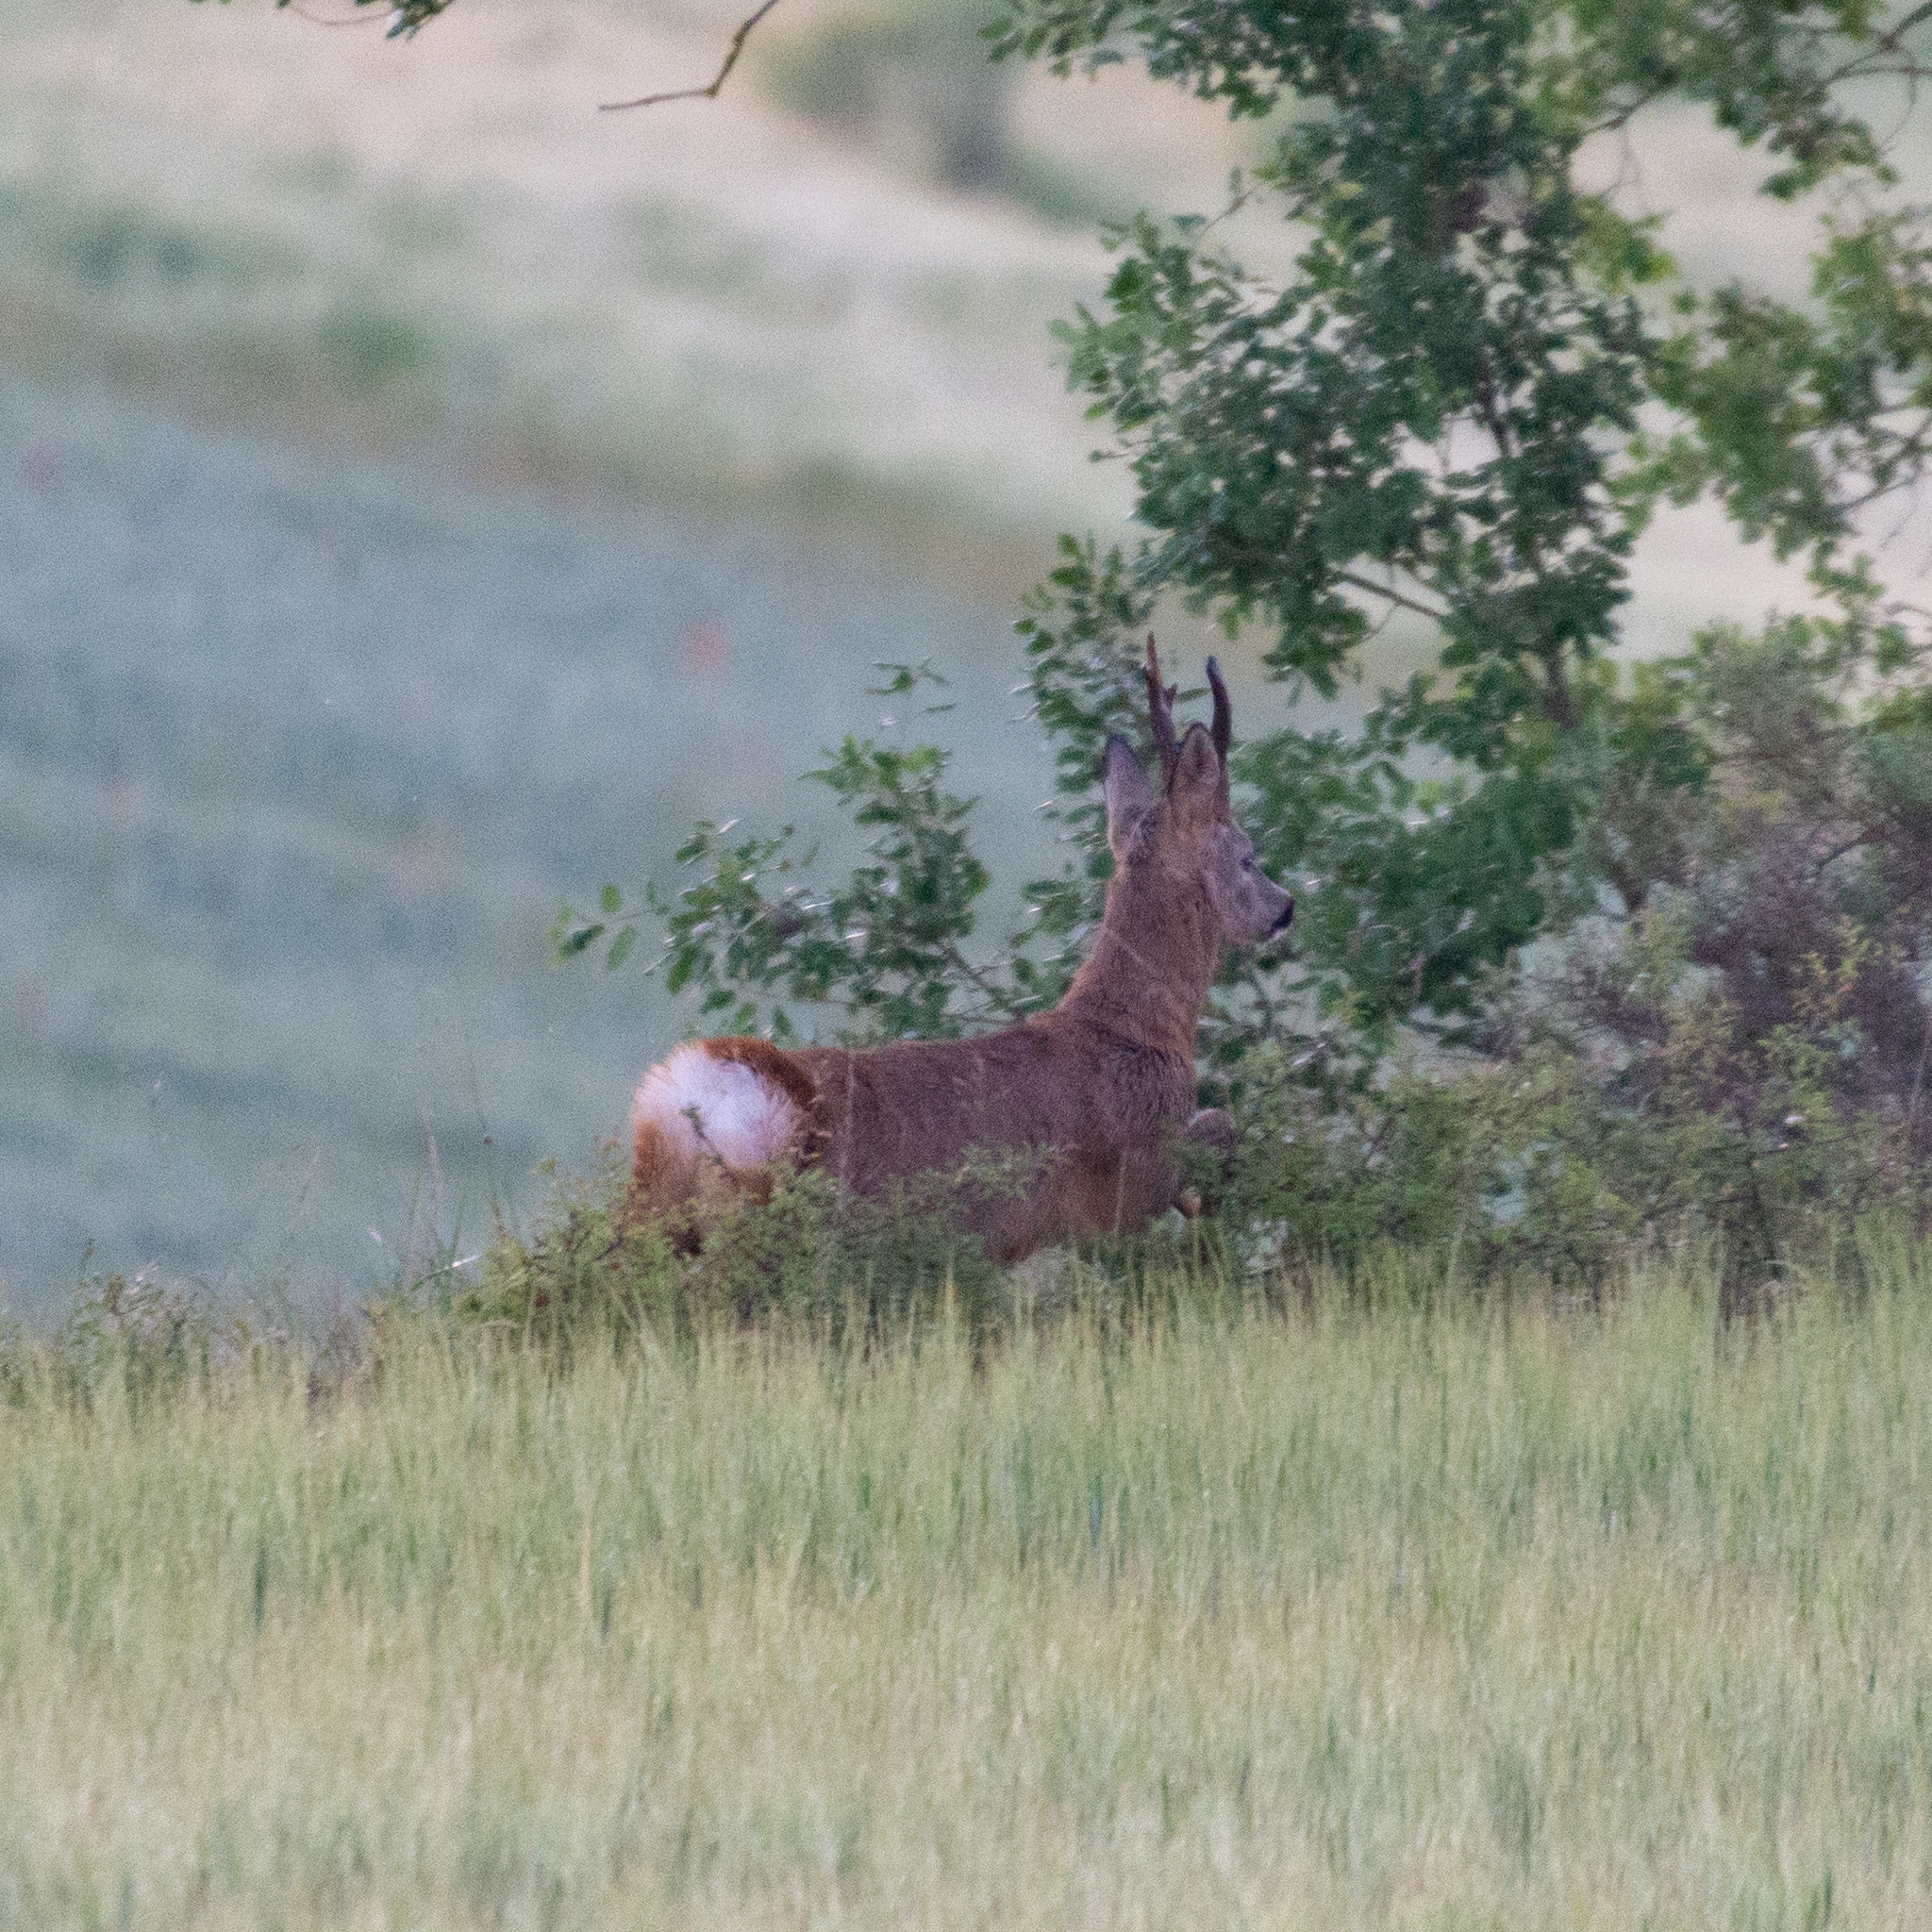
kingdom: Animalia
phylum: Chordata
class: Mammalia
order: Artiodactyla
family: Cervidae
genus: Capreolus
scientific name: Capreolus capreolus
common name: Western roe deer
